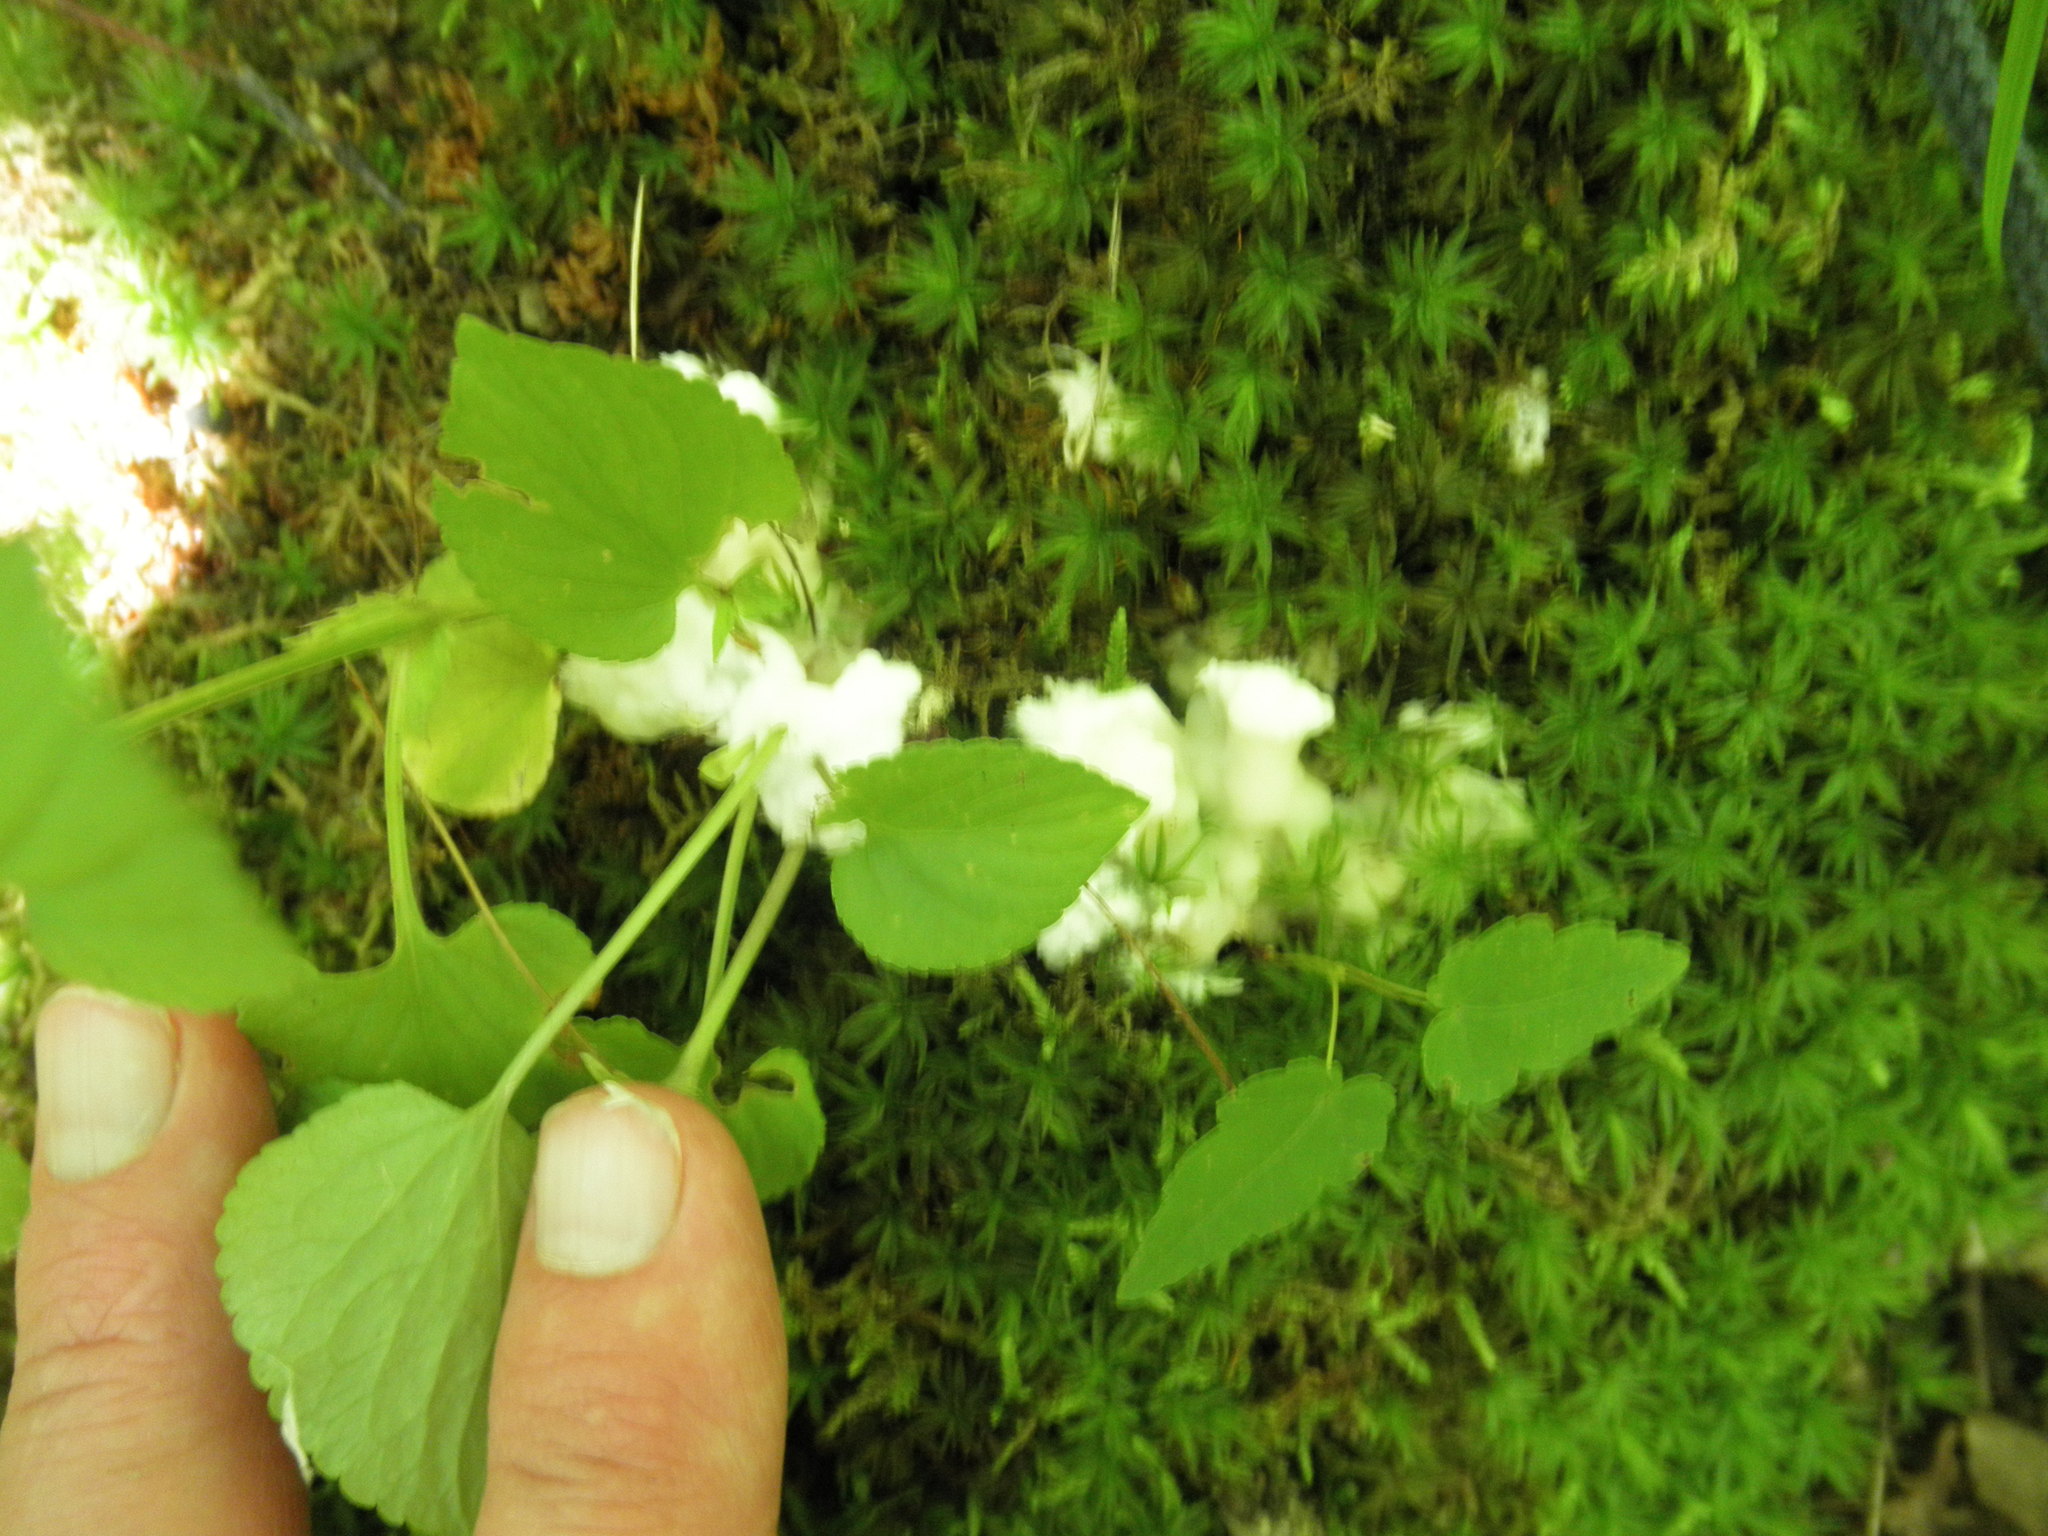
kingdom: Fungi
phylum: Basidiomycota
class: Agaricomycetes
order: Sebacinales
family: Sebacinaceae
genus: Helvellosebacina
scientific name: Helvellosebacina concrescens
